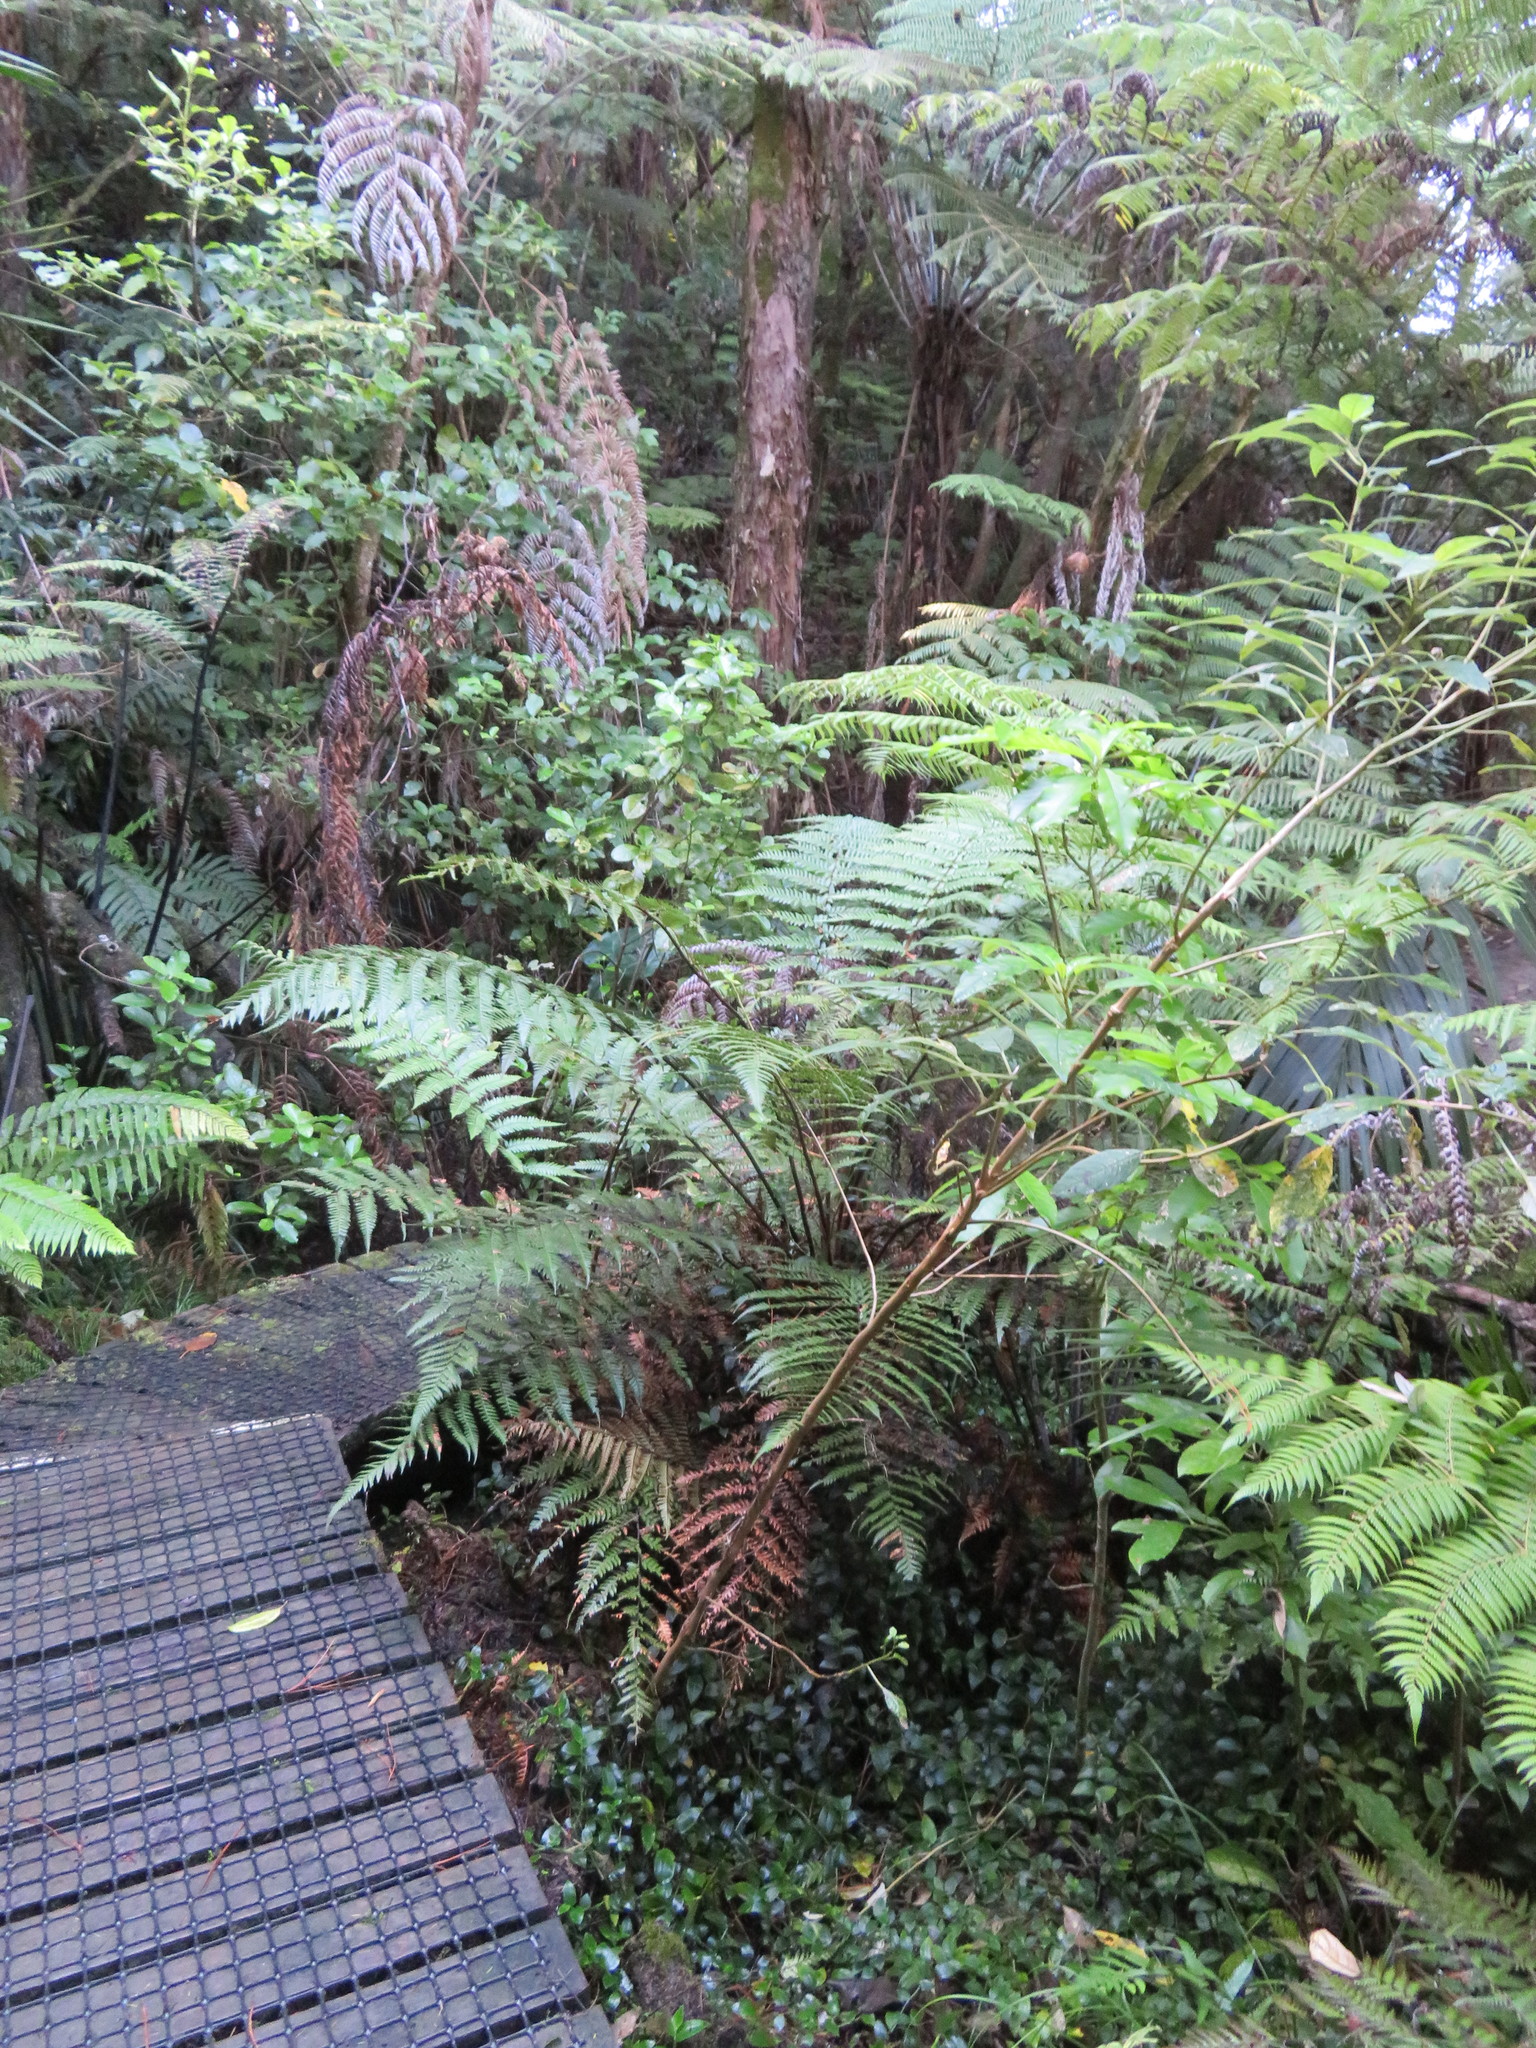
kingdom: Plantae
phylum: Tracheophyta
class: Magnoliopsida
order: Myrtales
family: Onagraceae
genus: Fuchsia
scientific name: Fuchsia excorticata
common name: Tree fuchsia
